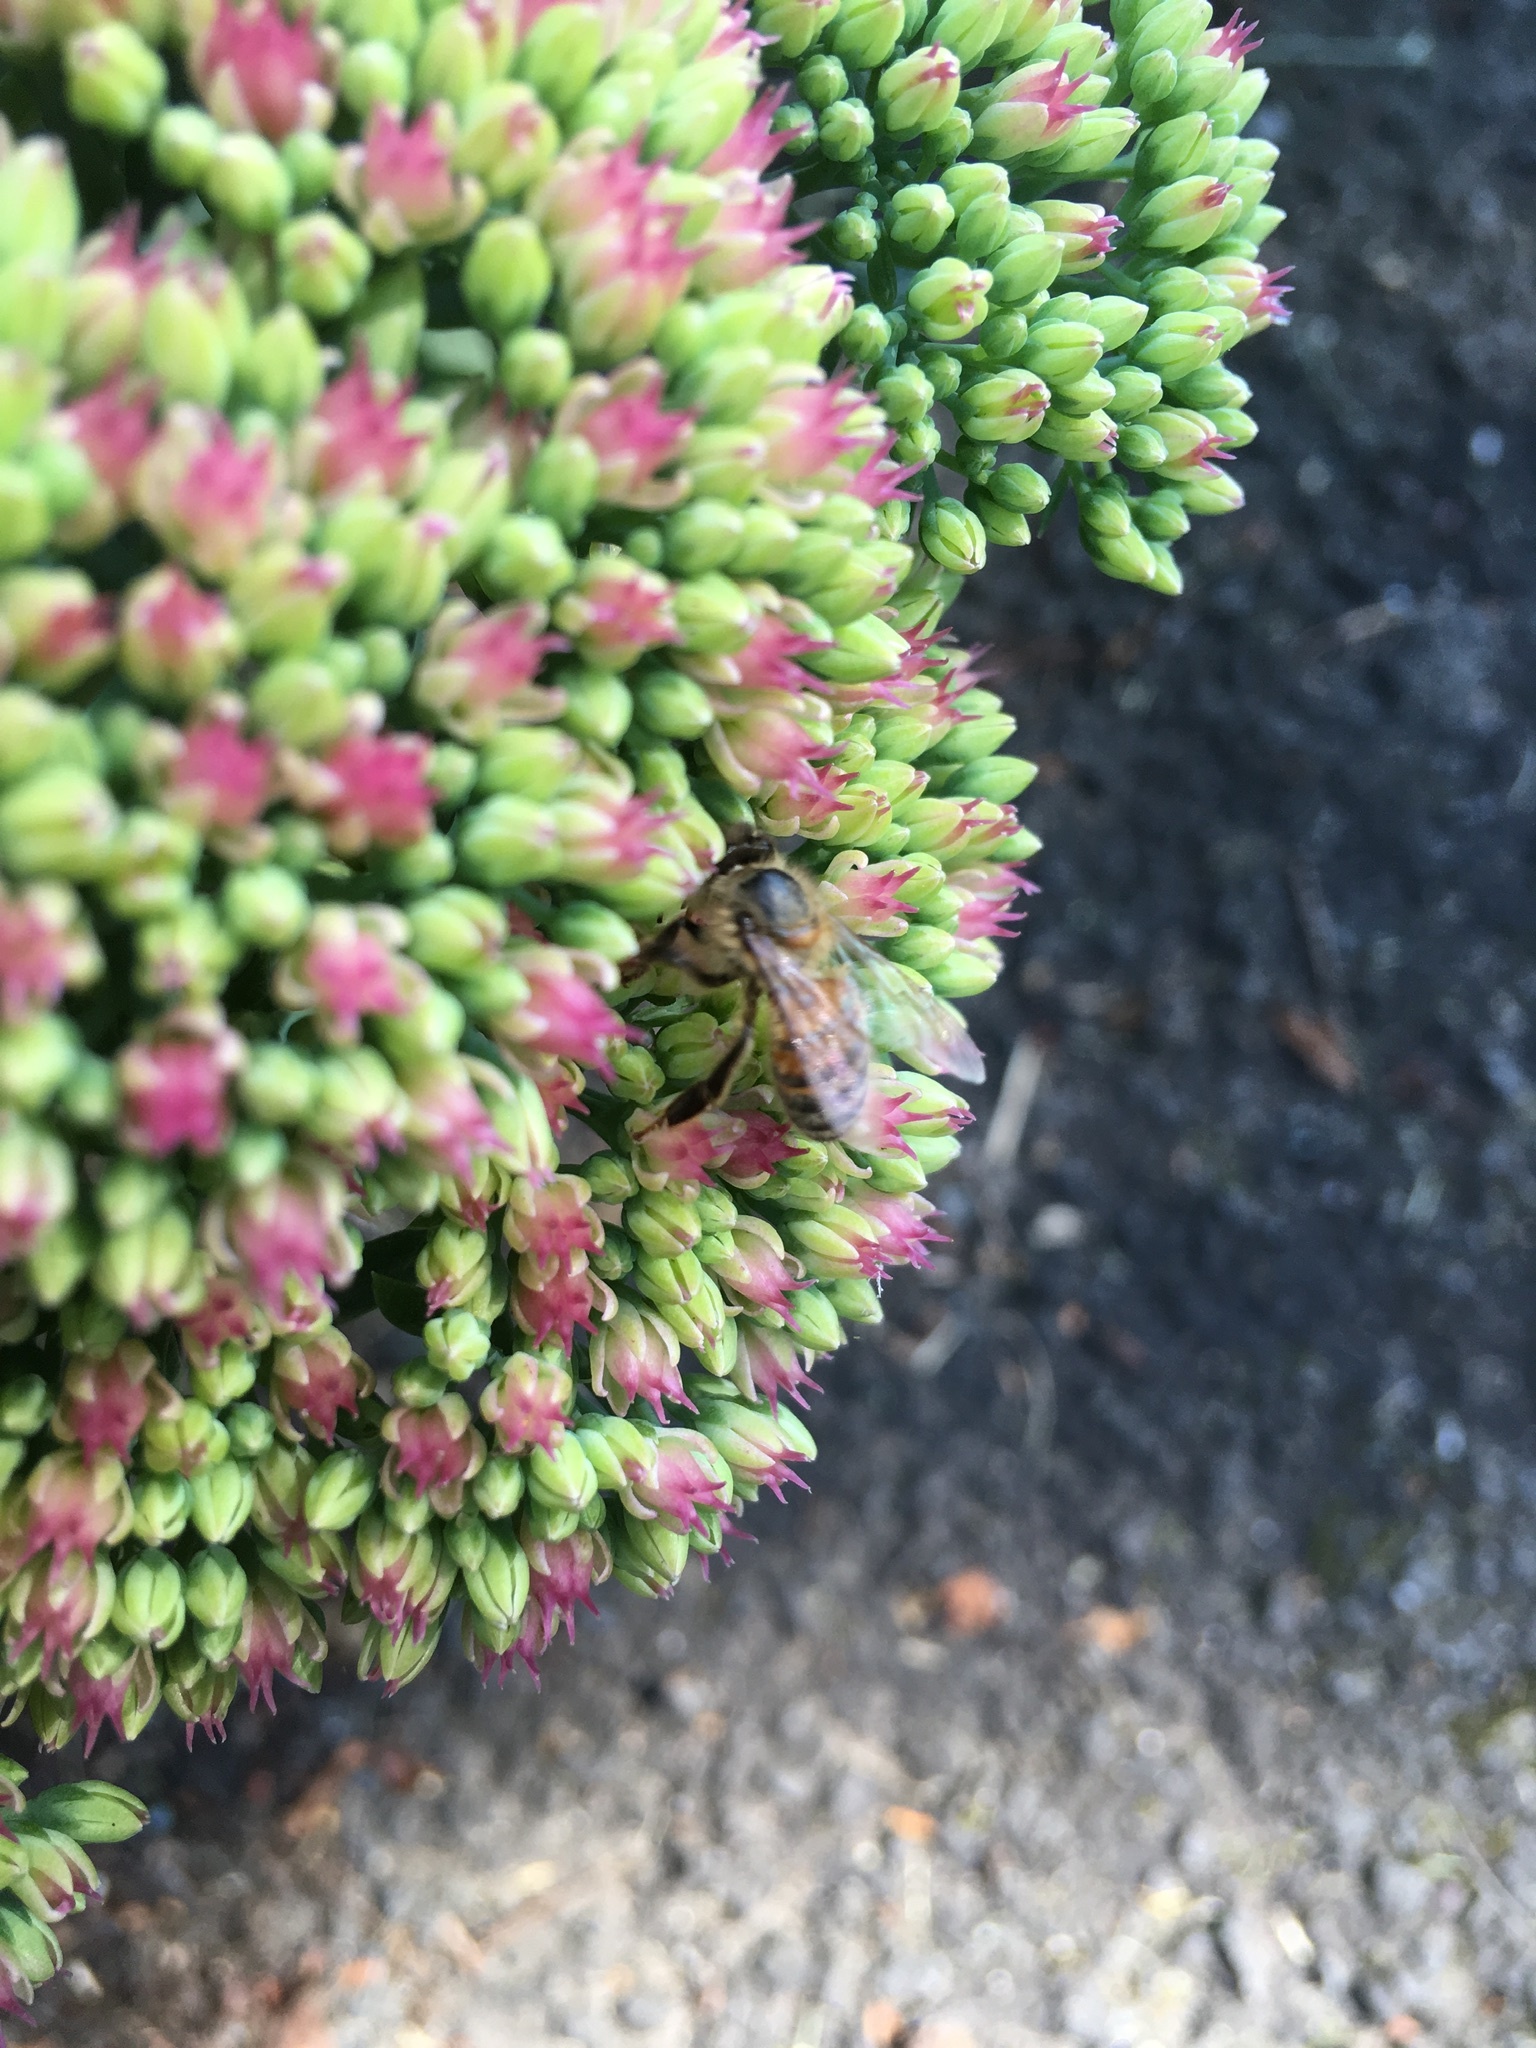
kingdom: Animalia
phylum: Arthropoda
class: Insecta
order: Hymenoptera
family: Apidae
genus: Apis
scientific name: Apis mellifera
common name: Honey bee
